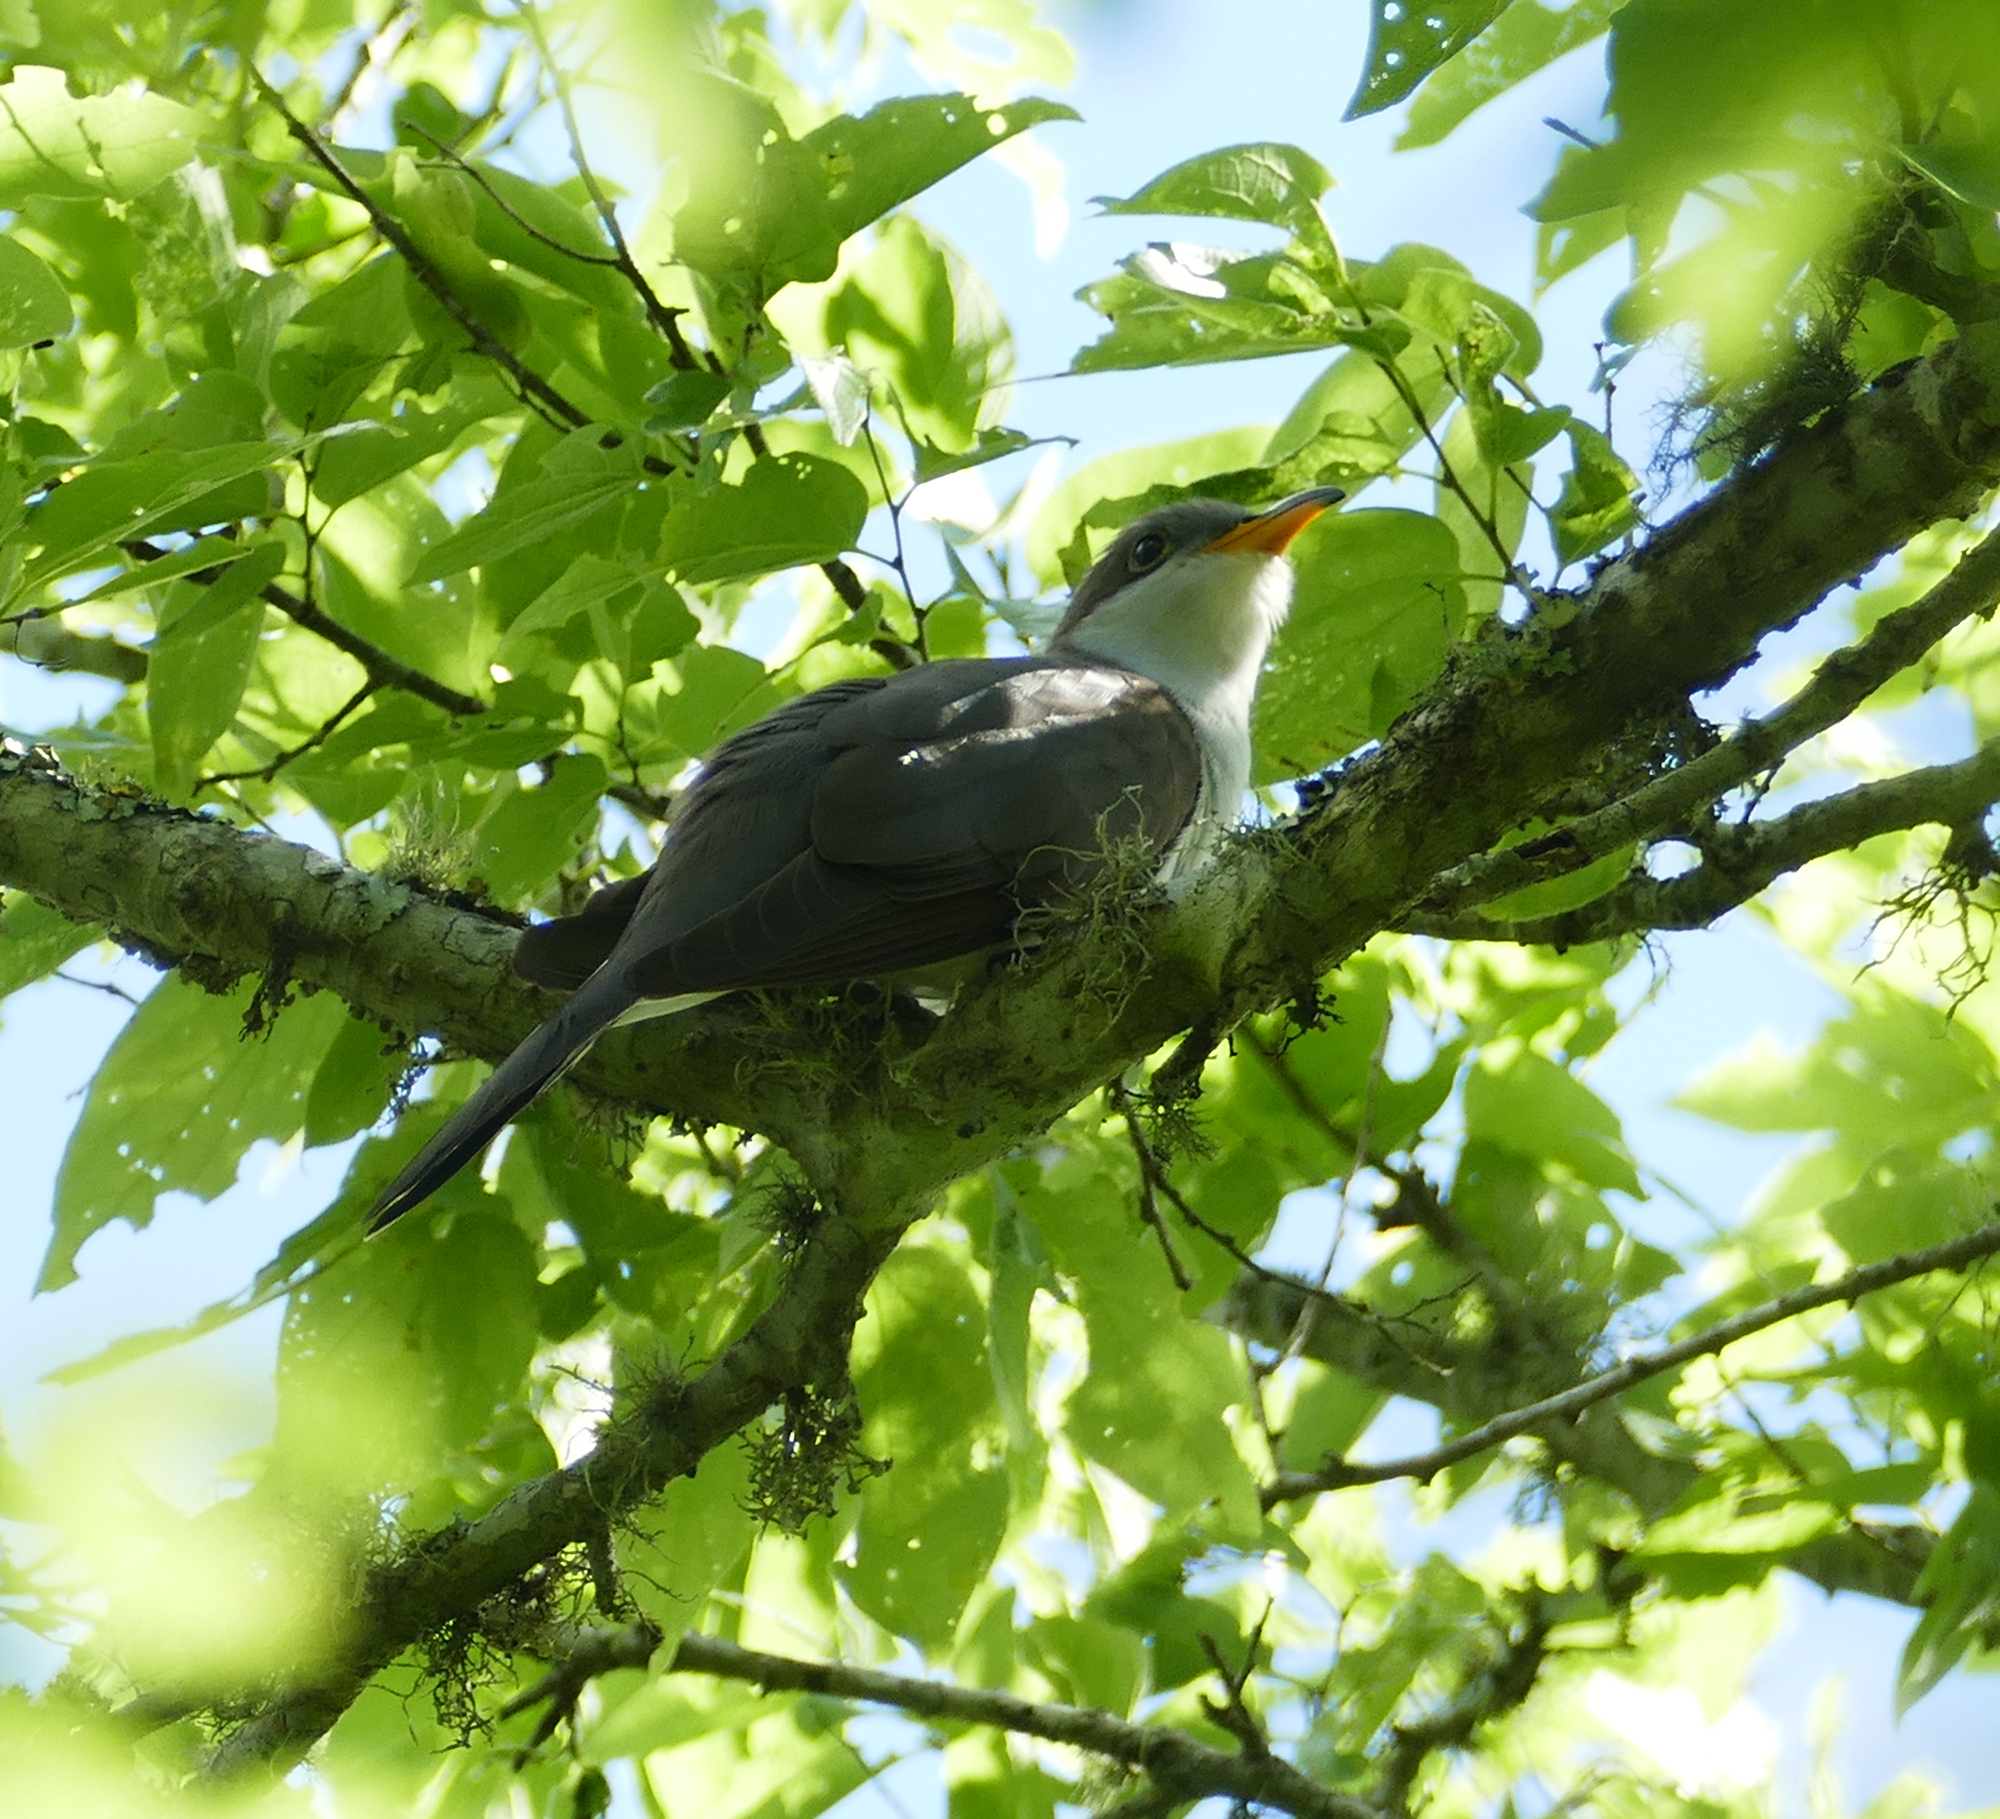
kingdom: Animalia
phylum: Chordata
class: Aves
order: Cuculiformes
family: Cuculidae
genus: Coccyzus
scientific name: Coccyzus americanus
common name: Yellow-billed cuckoo
